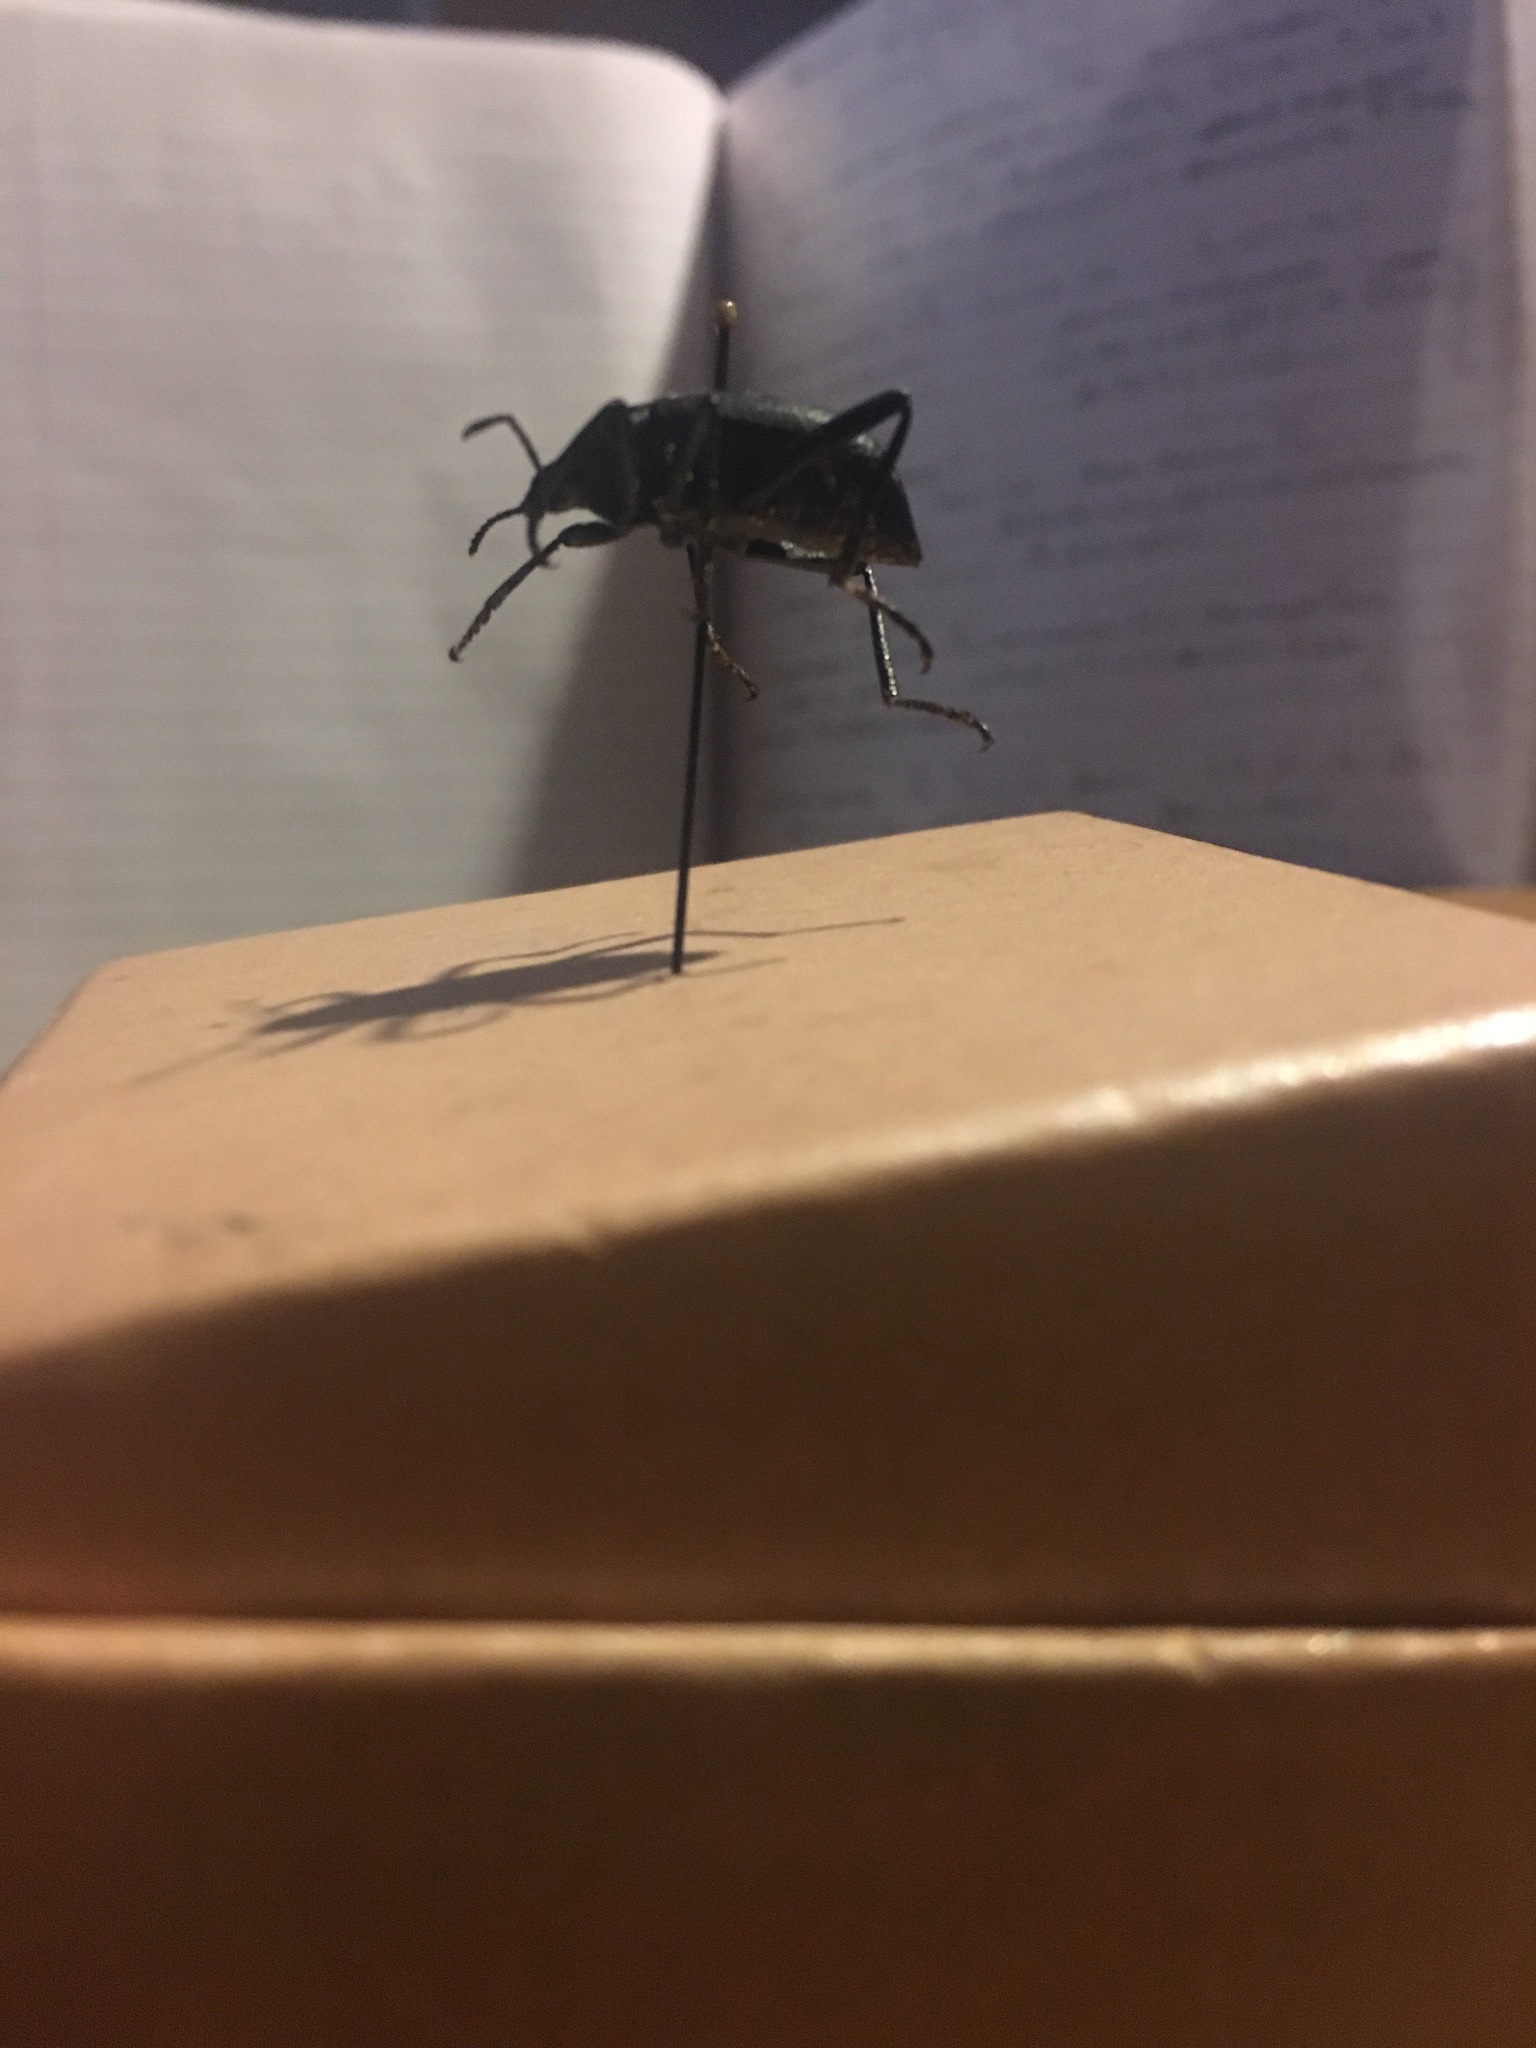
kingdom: Animalia
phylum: Arthropoda
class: Insecta
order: Coleoptera
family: Tenebrionidae
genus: Eleodes
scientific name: Eleodes goryi
